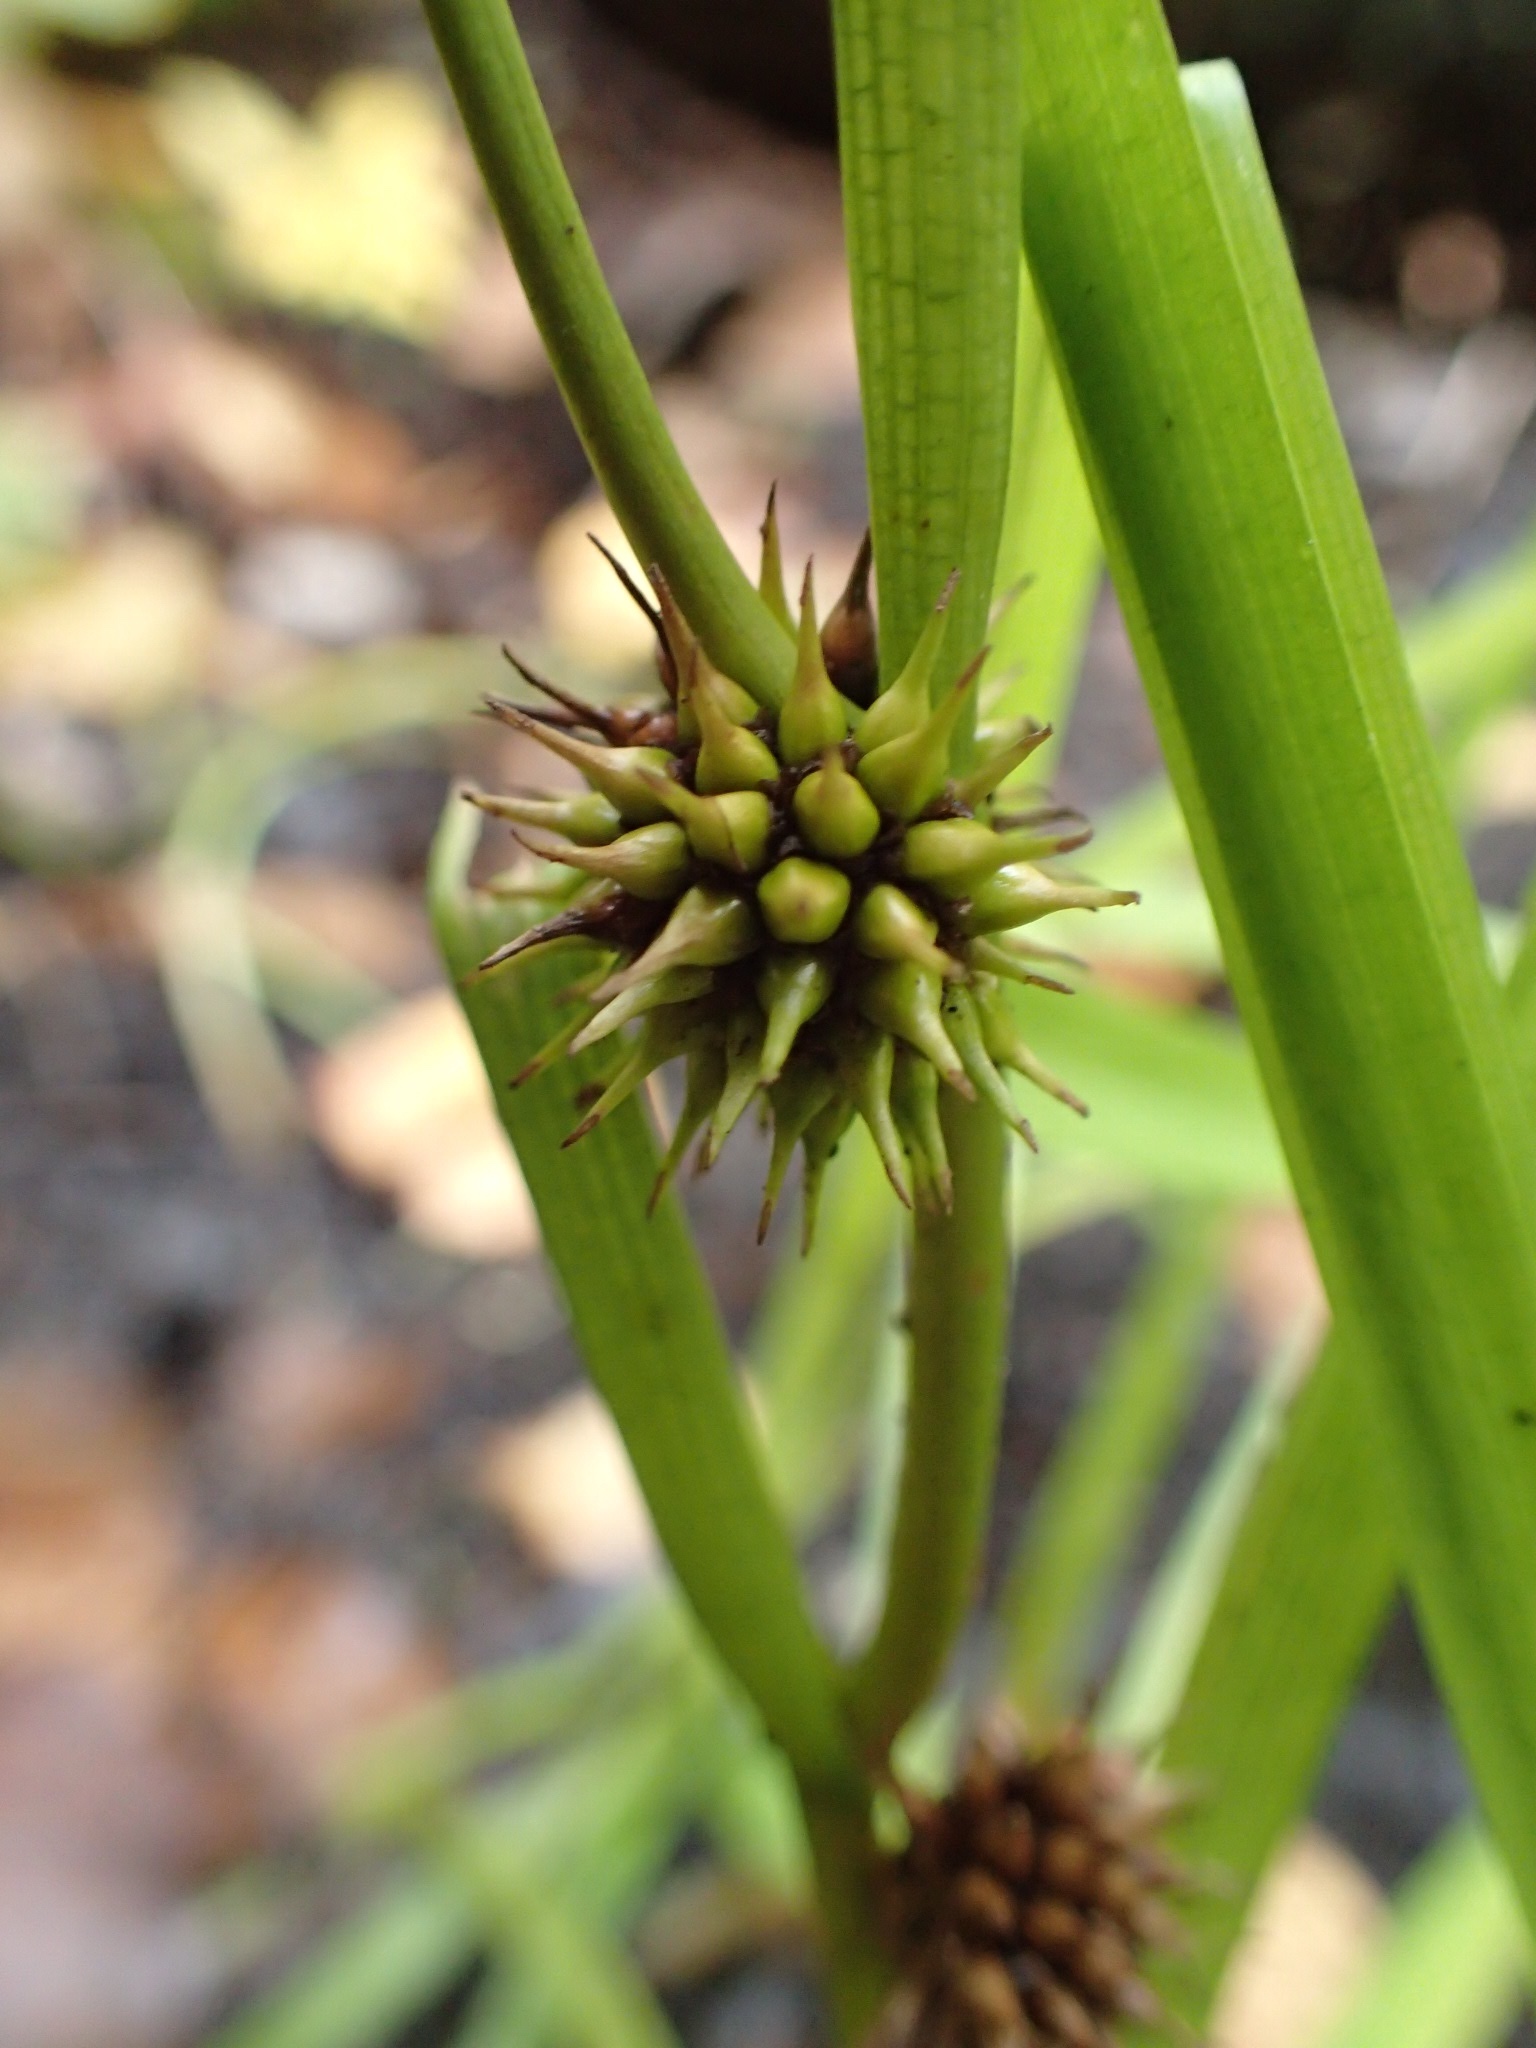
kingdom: Plantae
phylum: Tracheophyta
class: Liliopsida
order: Poales
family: Typhaceae
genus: Sparganium
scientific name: Sparganium emersum
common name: Unbranched bur-reed
